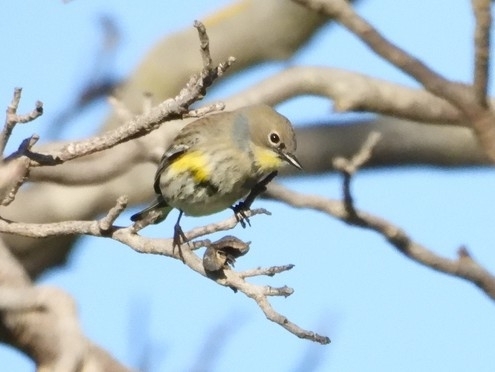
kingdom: Animalia
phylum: Chordata
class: Aves
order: Passeriformes
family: Parulidae
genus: Setophaga
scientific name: Setophaga coronata
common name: Myrtle warbler
